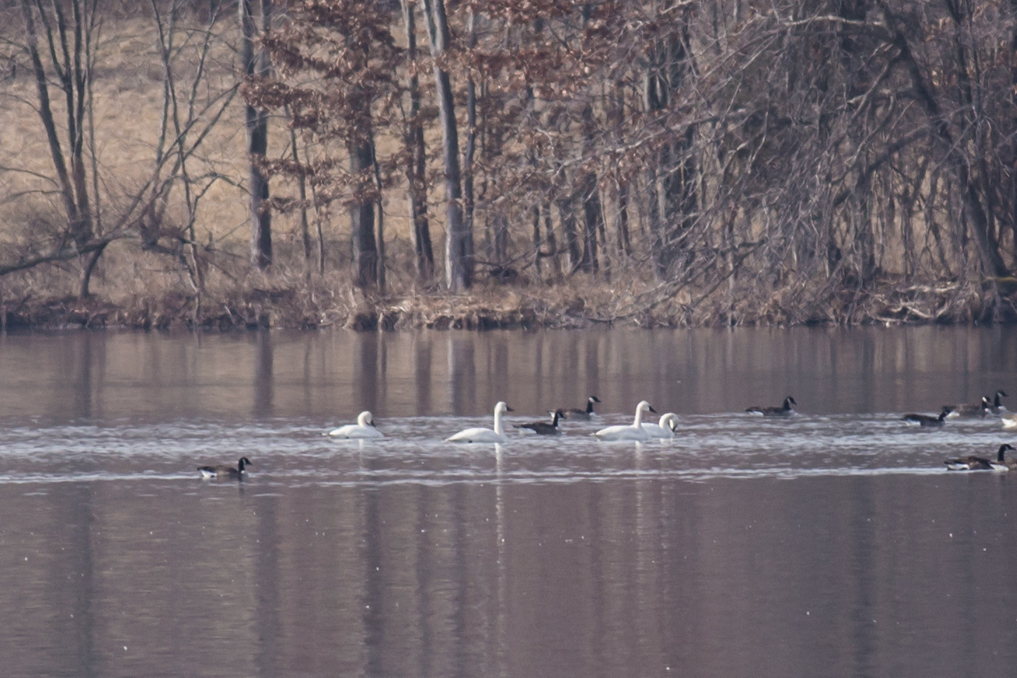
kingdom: Animalia
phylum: Chordata
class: Aves
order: Anseriformes
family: Anatidae
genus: Cygnus
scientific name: Cygnus columbianus
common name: Tundra swan
